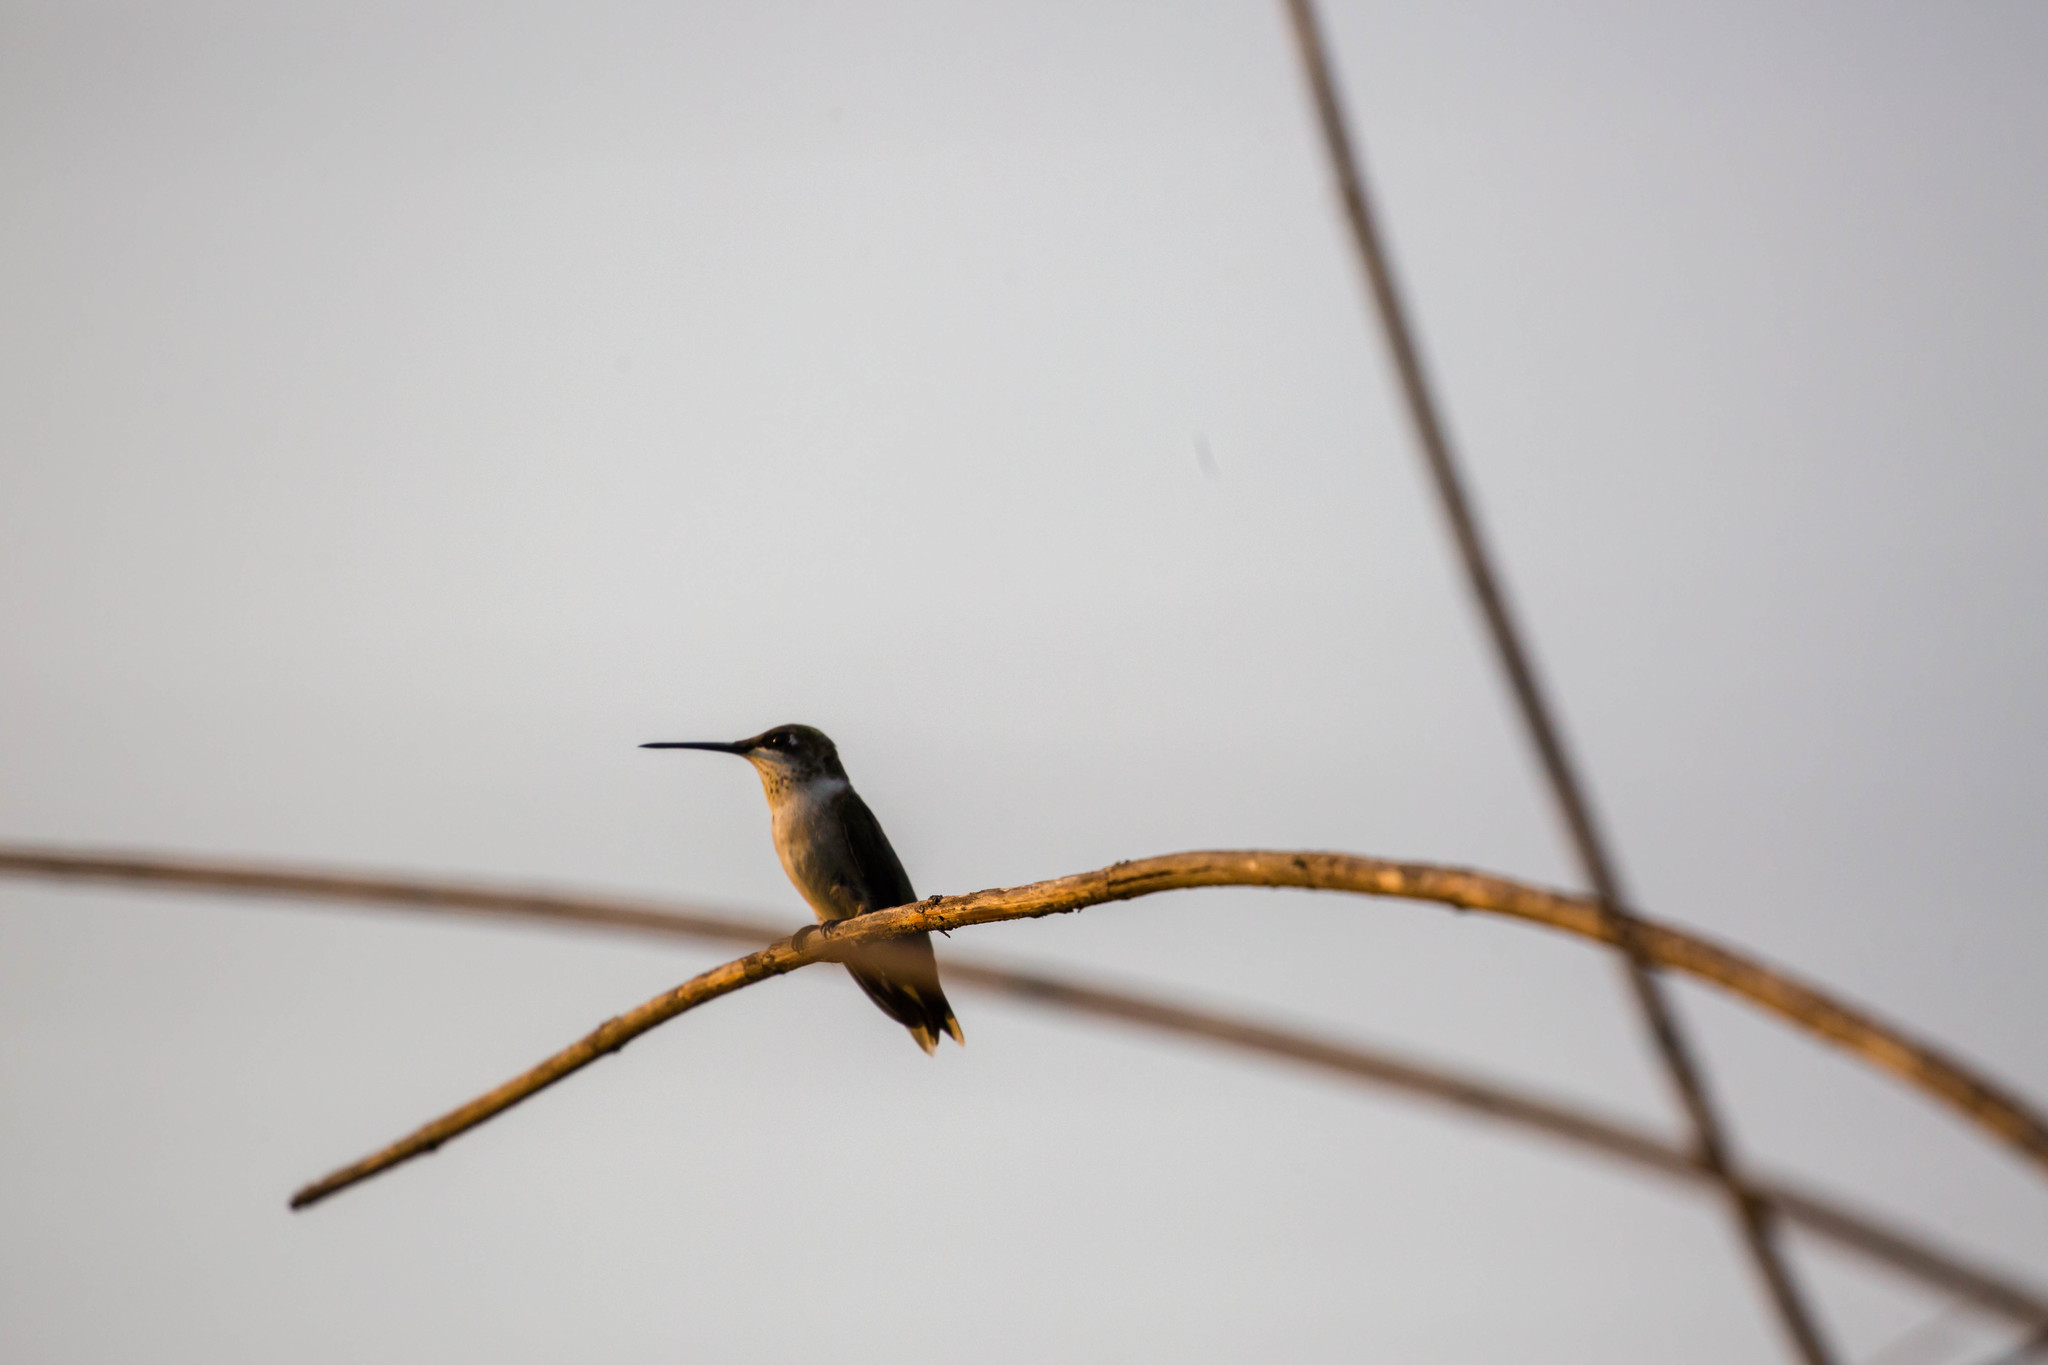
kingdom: Animalia
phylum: Chordata
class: Aves
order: Apodiformes
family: Trochilidae
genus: Archilochus
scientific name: Archilochus colubris
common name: Ruby-throated hummingbird
